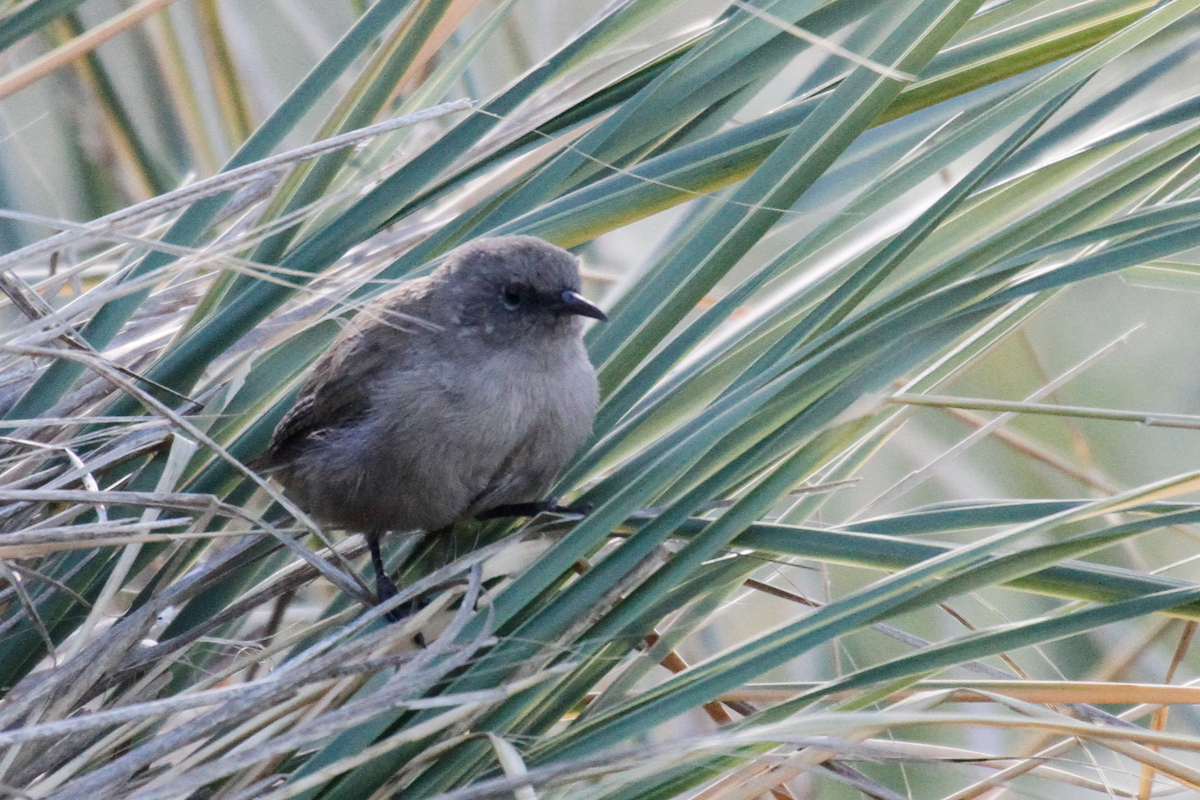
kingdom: Animalia
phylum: Chordata
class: Aves
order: Passeriformes
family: Troglodytidae
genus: Troglodytes
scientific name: Troglodytes cobbi
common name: Cobb's wren
